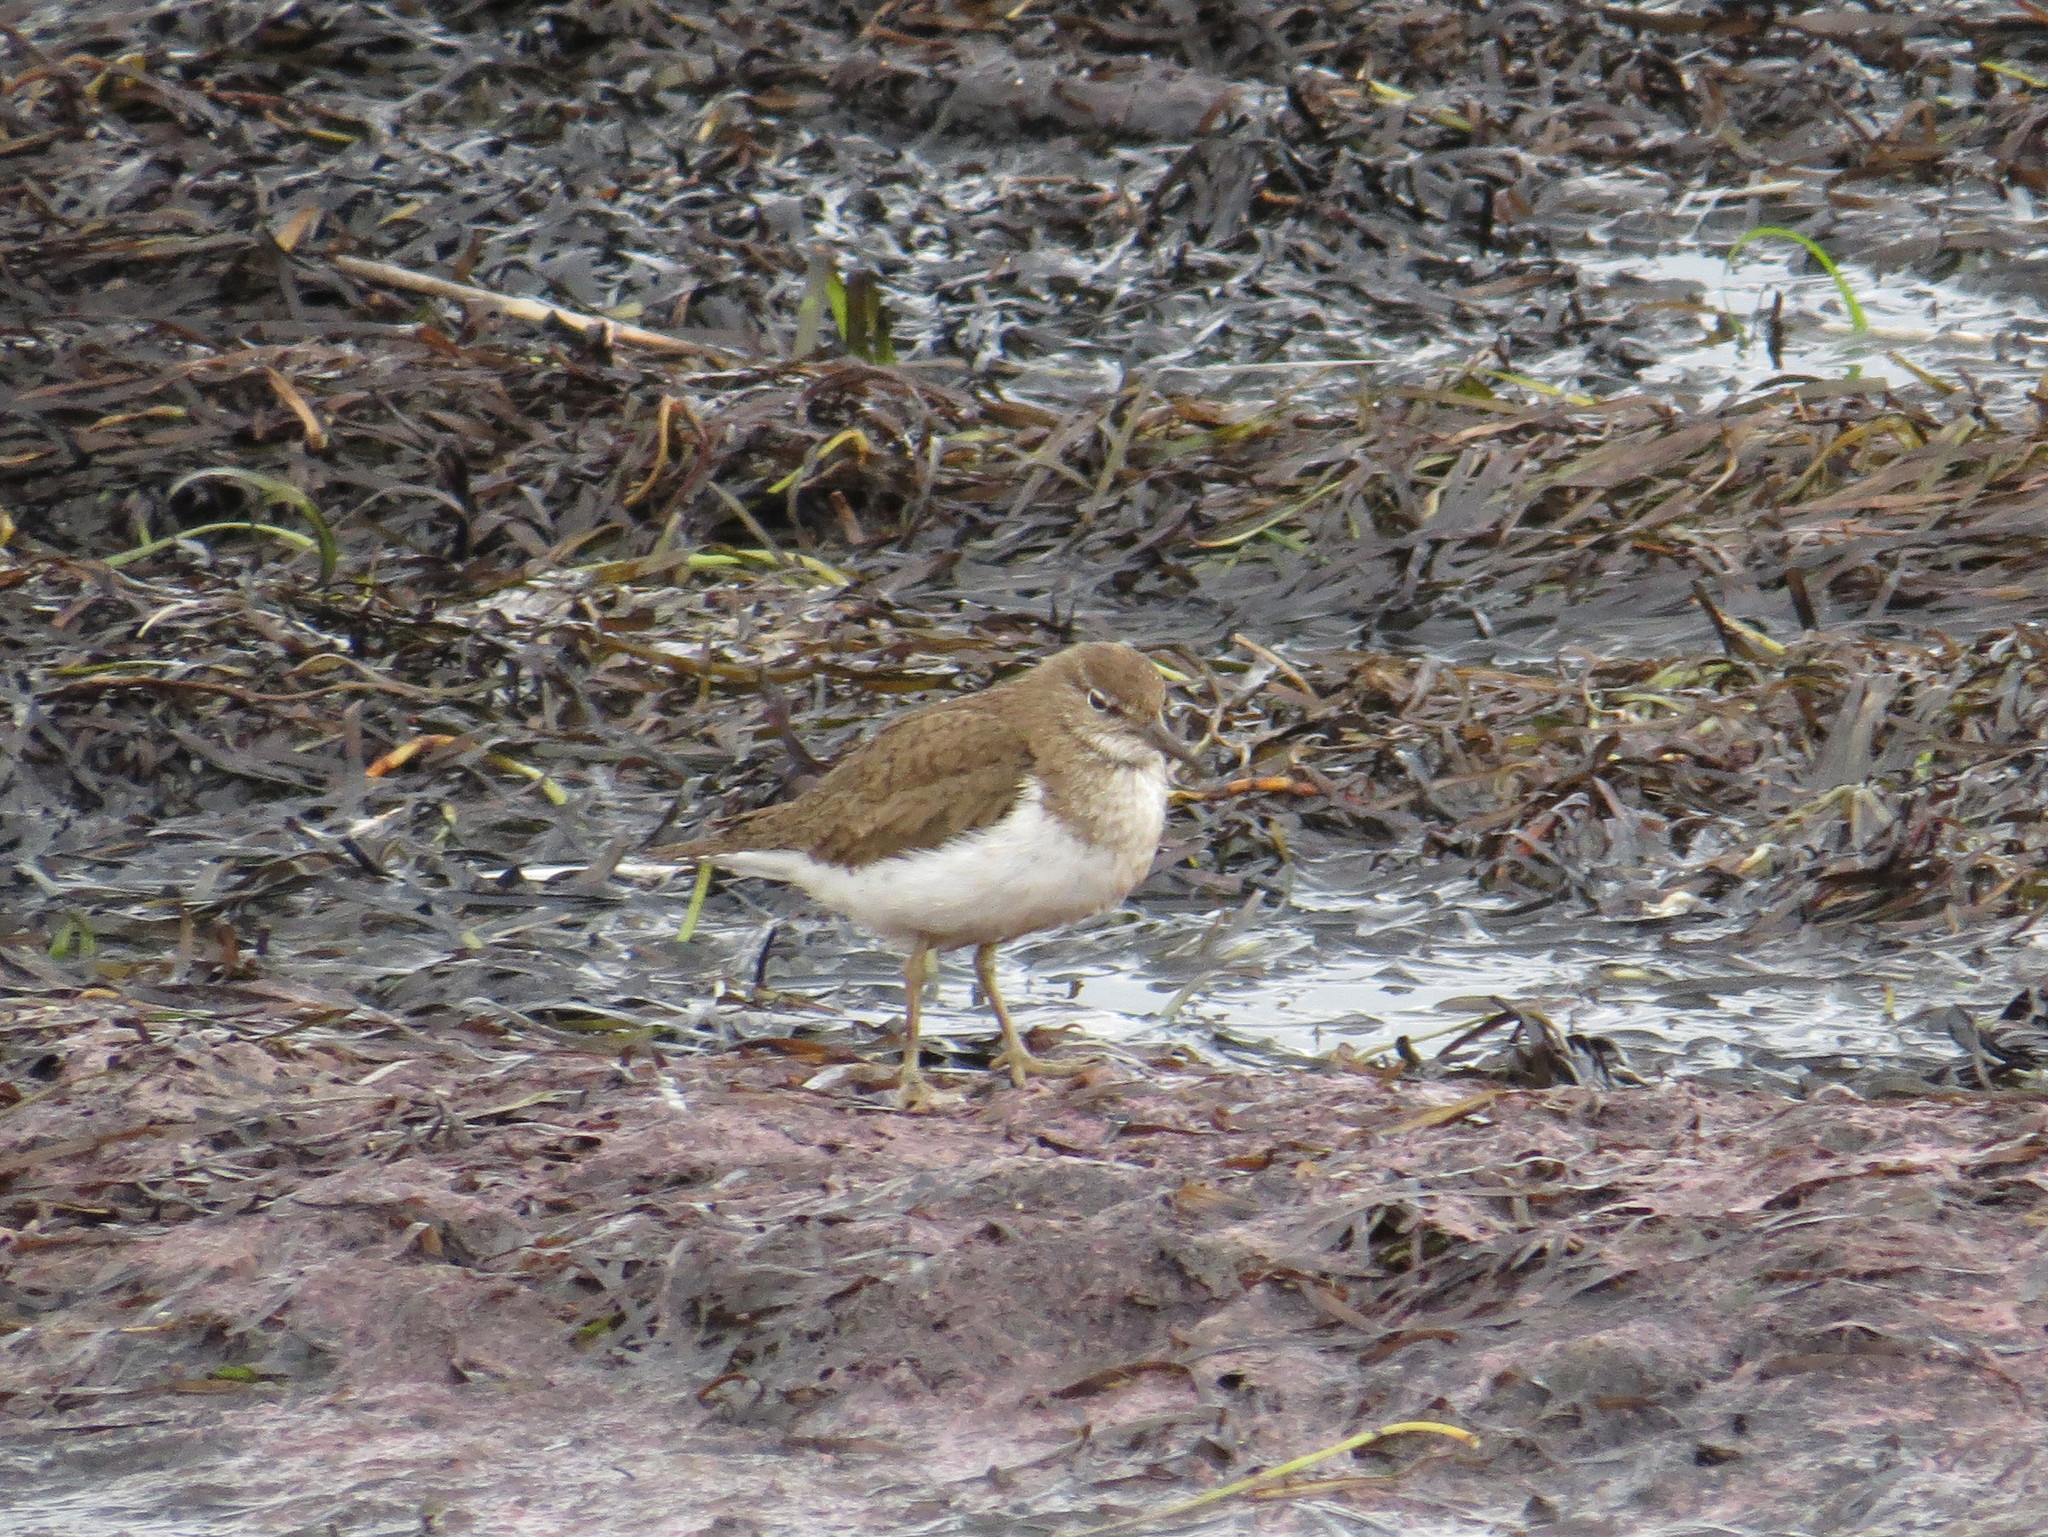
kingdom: Animalia
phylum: Chordata
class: Aves
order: Charadriiformes
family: Scolopacidae
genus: Actitis
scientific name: Actitis hypoleucos
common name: Common sandpiper
